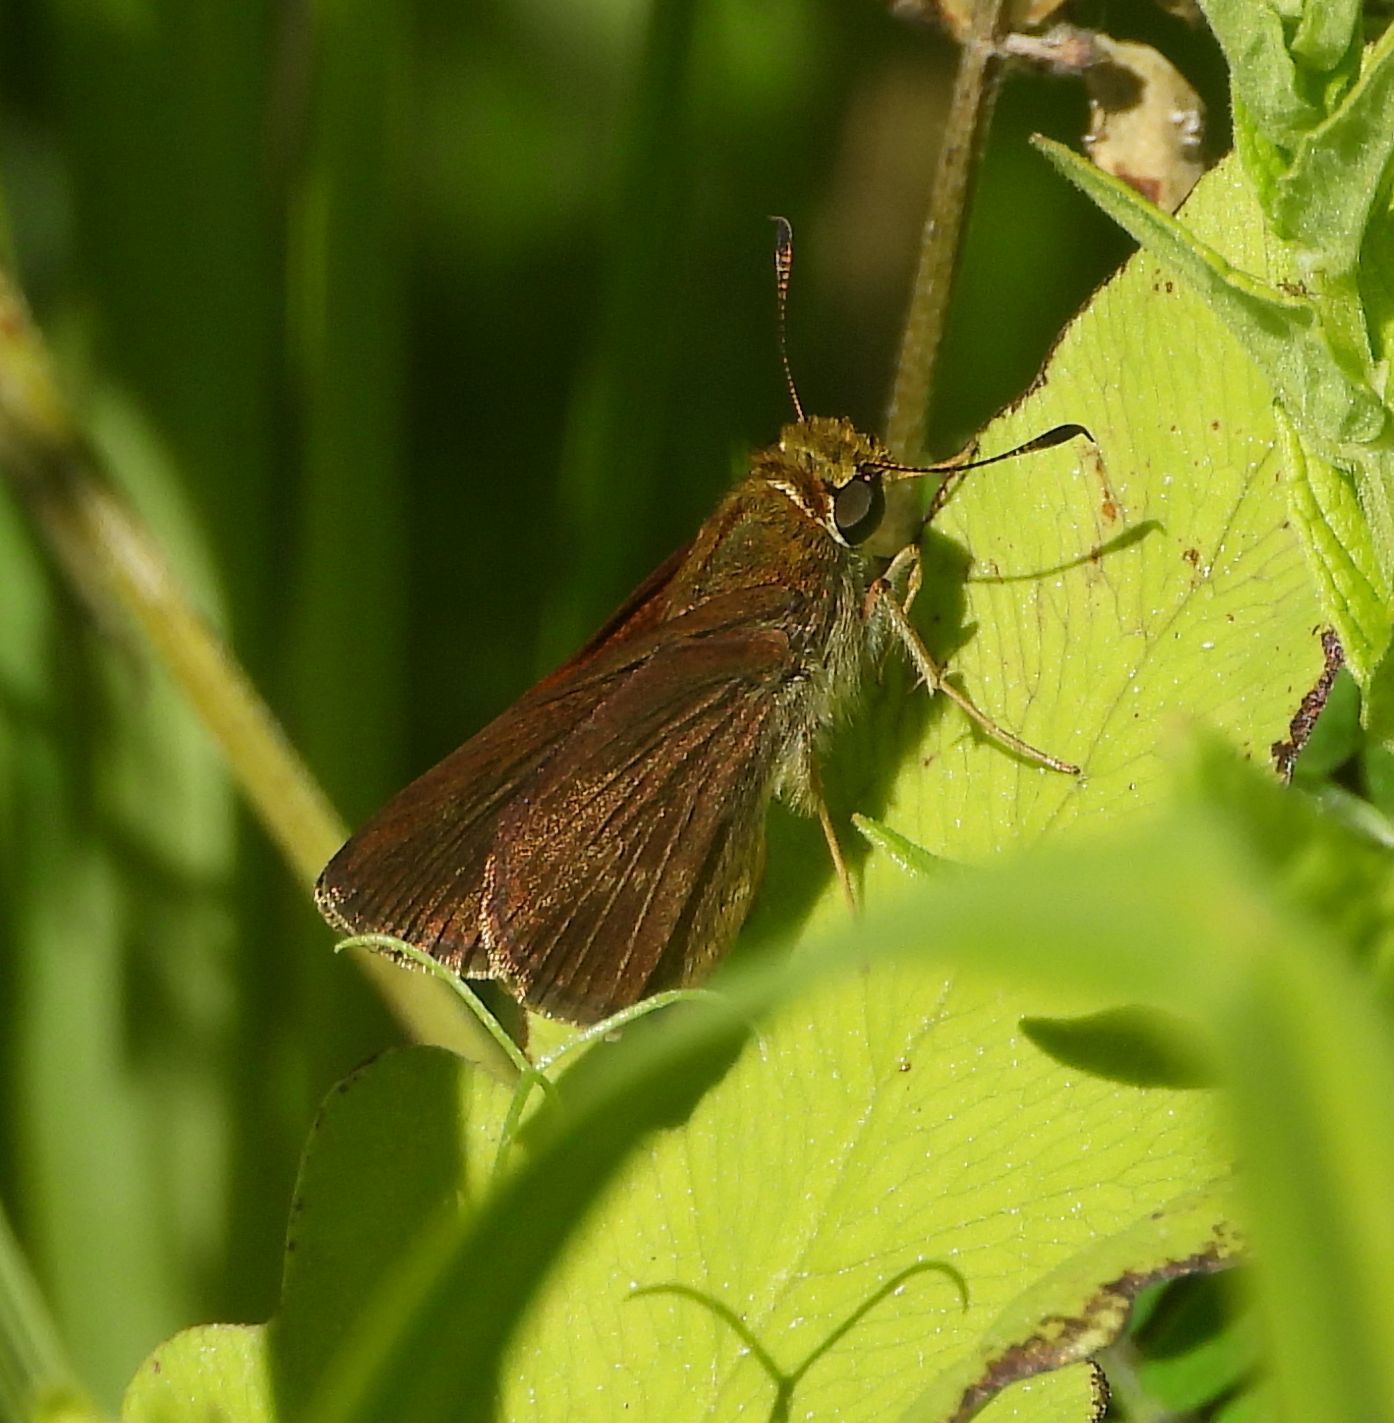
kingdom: Animalia
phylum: Arthropoda
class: Insecta
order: Lepidoptera
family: Hesperiidae
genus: Euphyes
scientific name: Euphyes vestris
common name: Dun skipper
